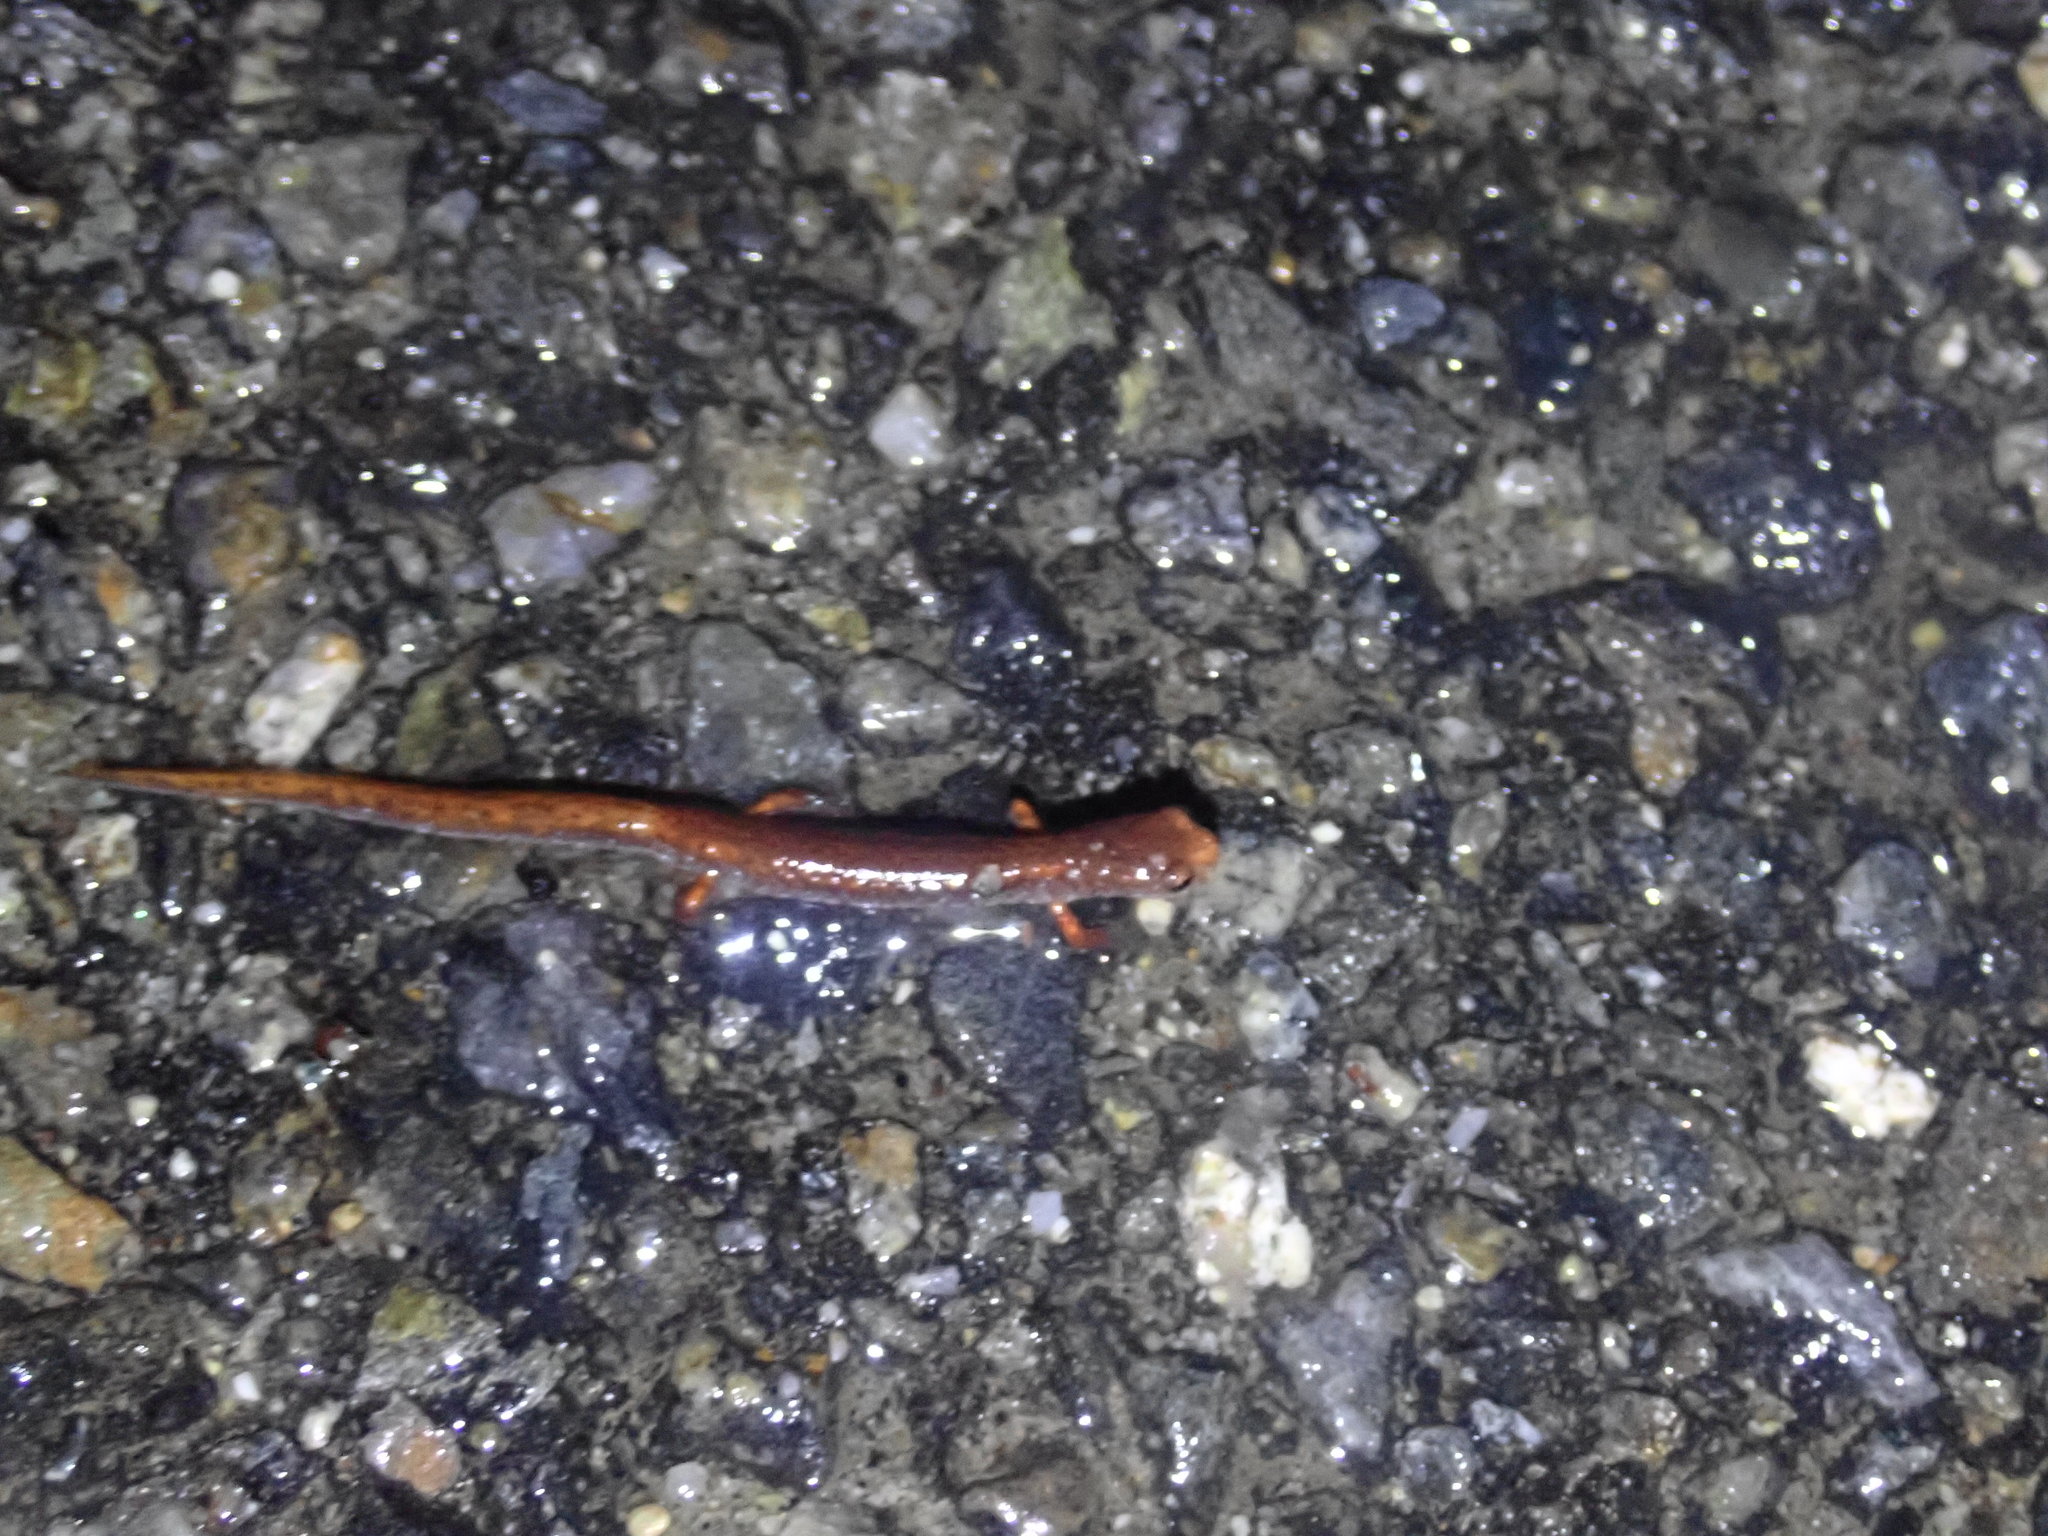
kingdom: Animalia
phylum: Chordata
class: Amphibia
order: Caudata
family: Plethodontidae
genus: Hemidactylium
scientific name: Hemidactylium scutatum
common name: Four-toed salamander
